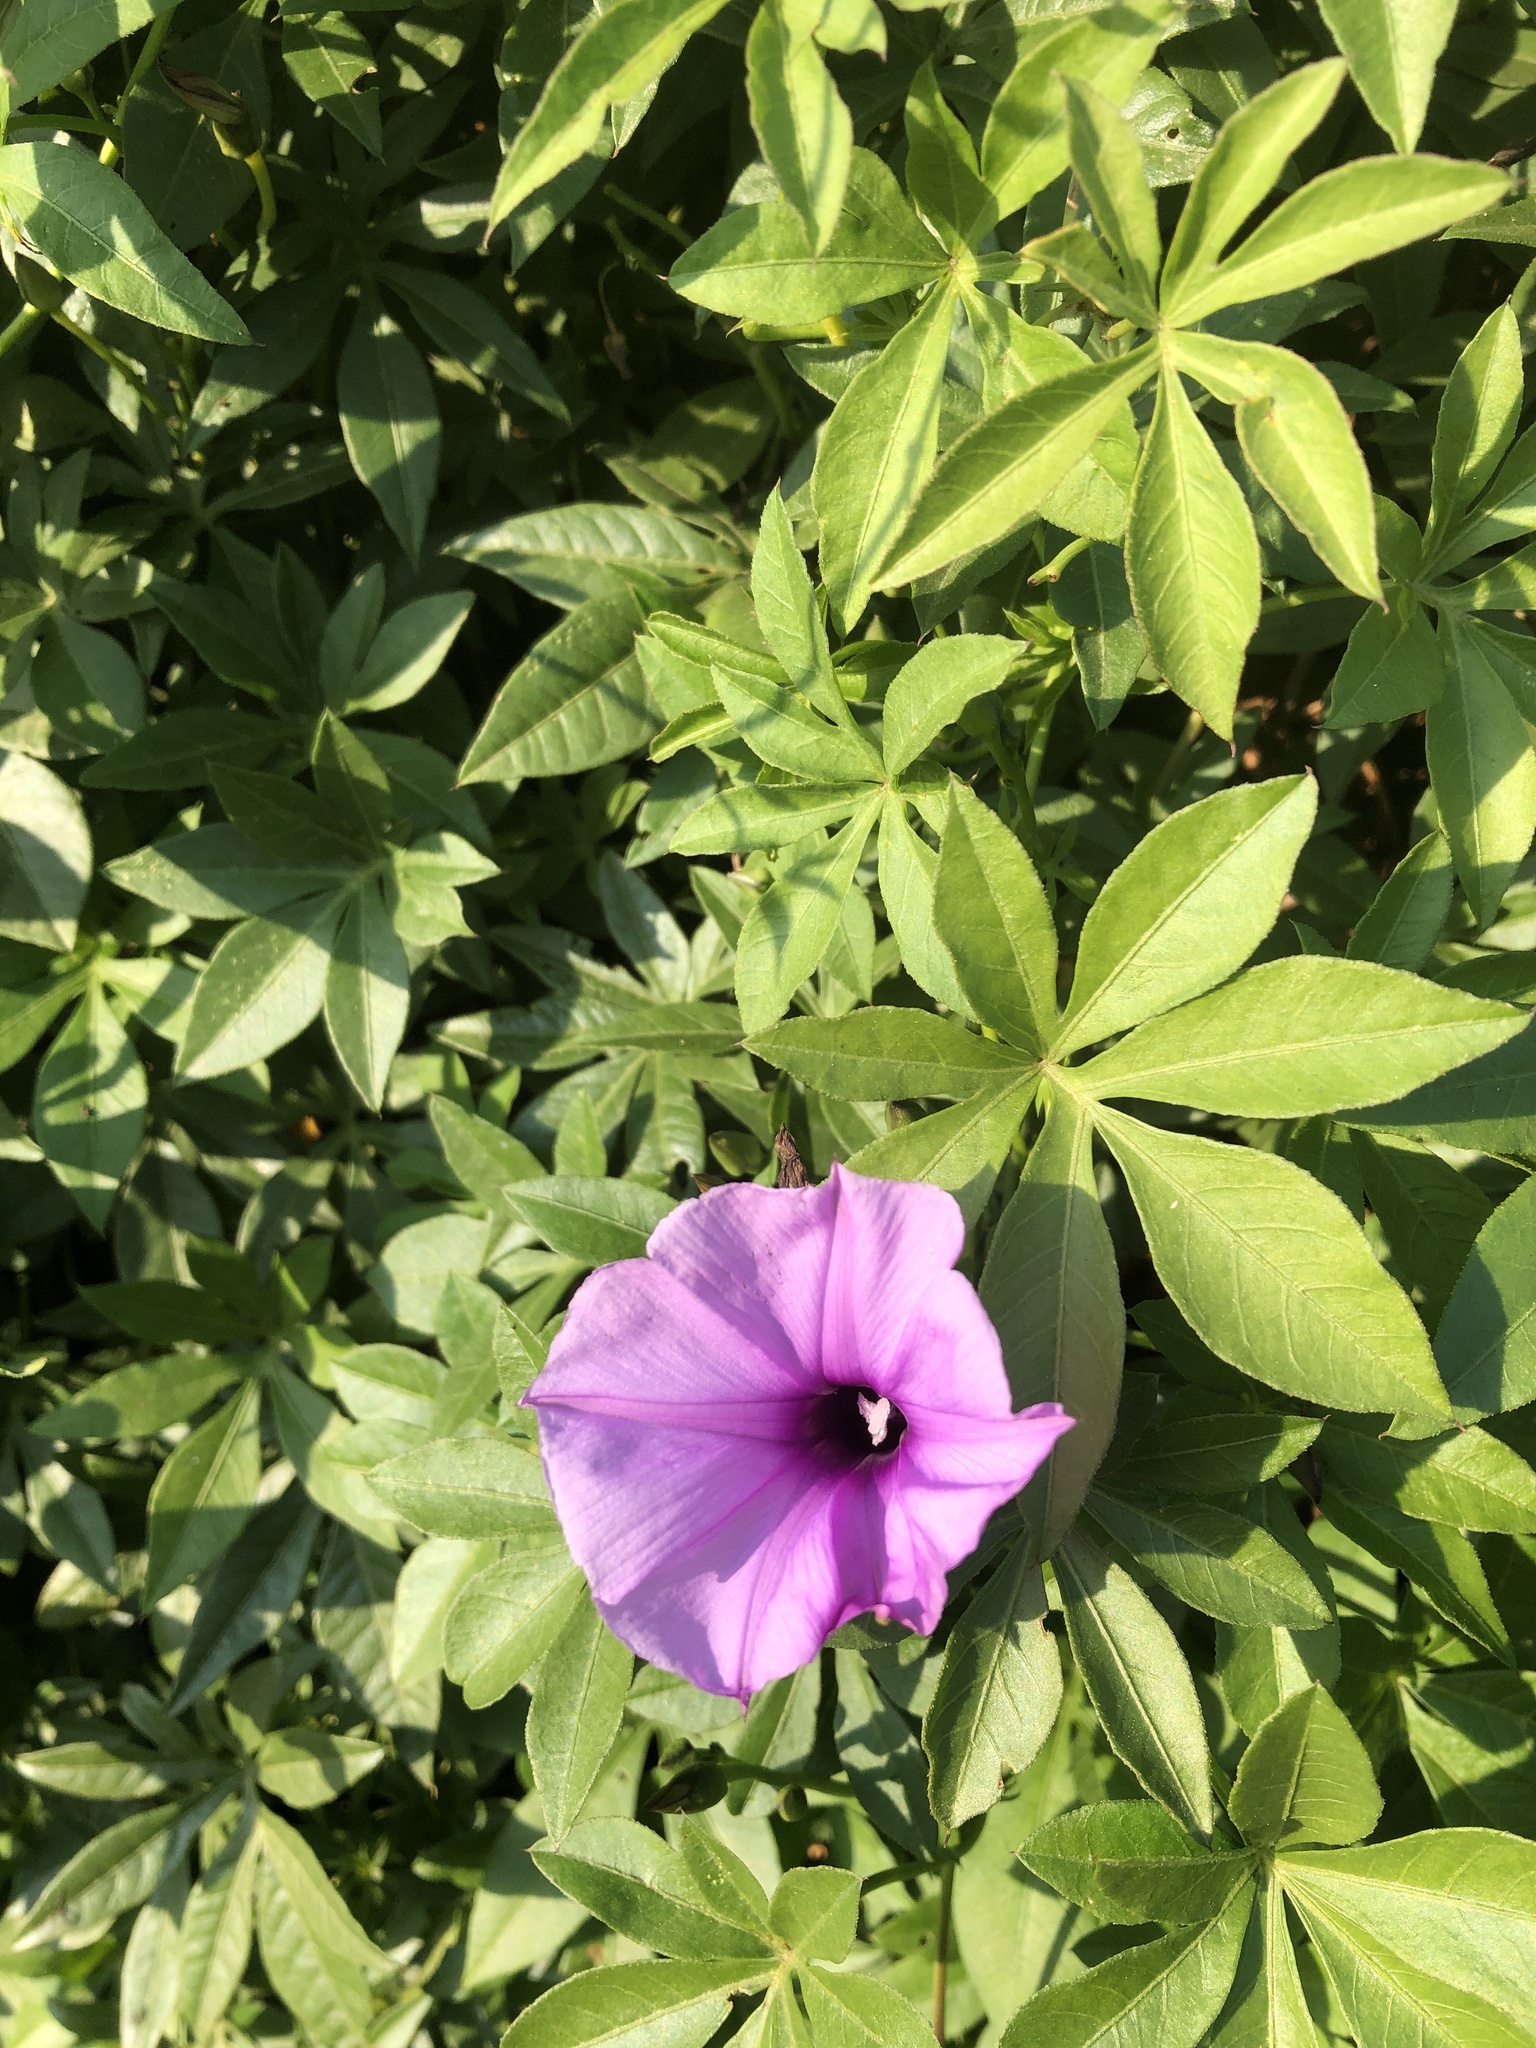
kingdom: Plantae
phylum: Tracheophyta
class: Magnoliopsida
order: Solanales
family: Convolvulaceae
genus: Ipomoea
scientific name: Ipomoea cairica
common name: Mile a minute vine
